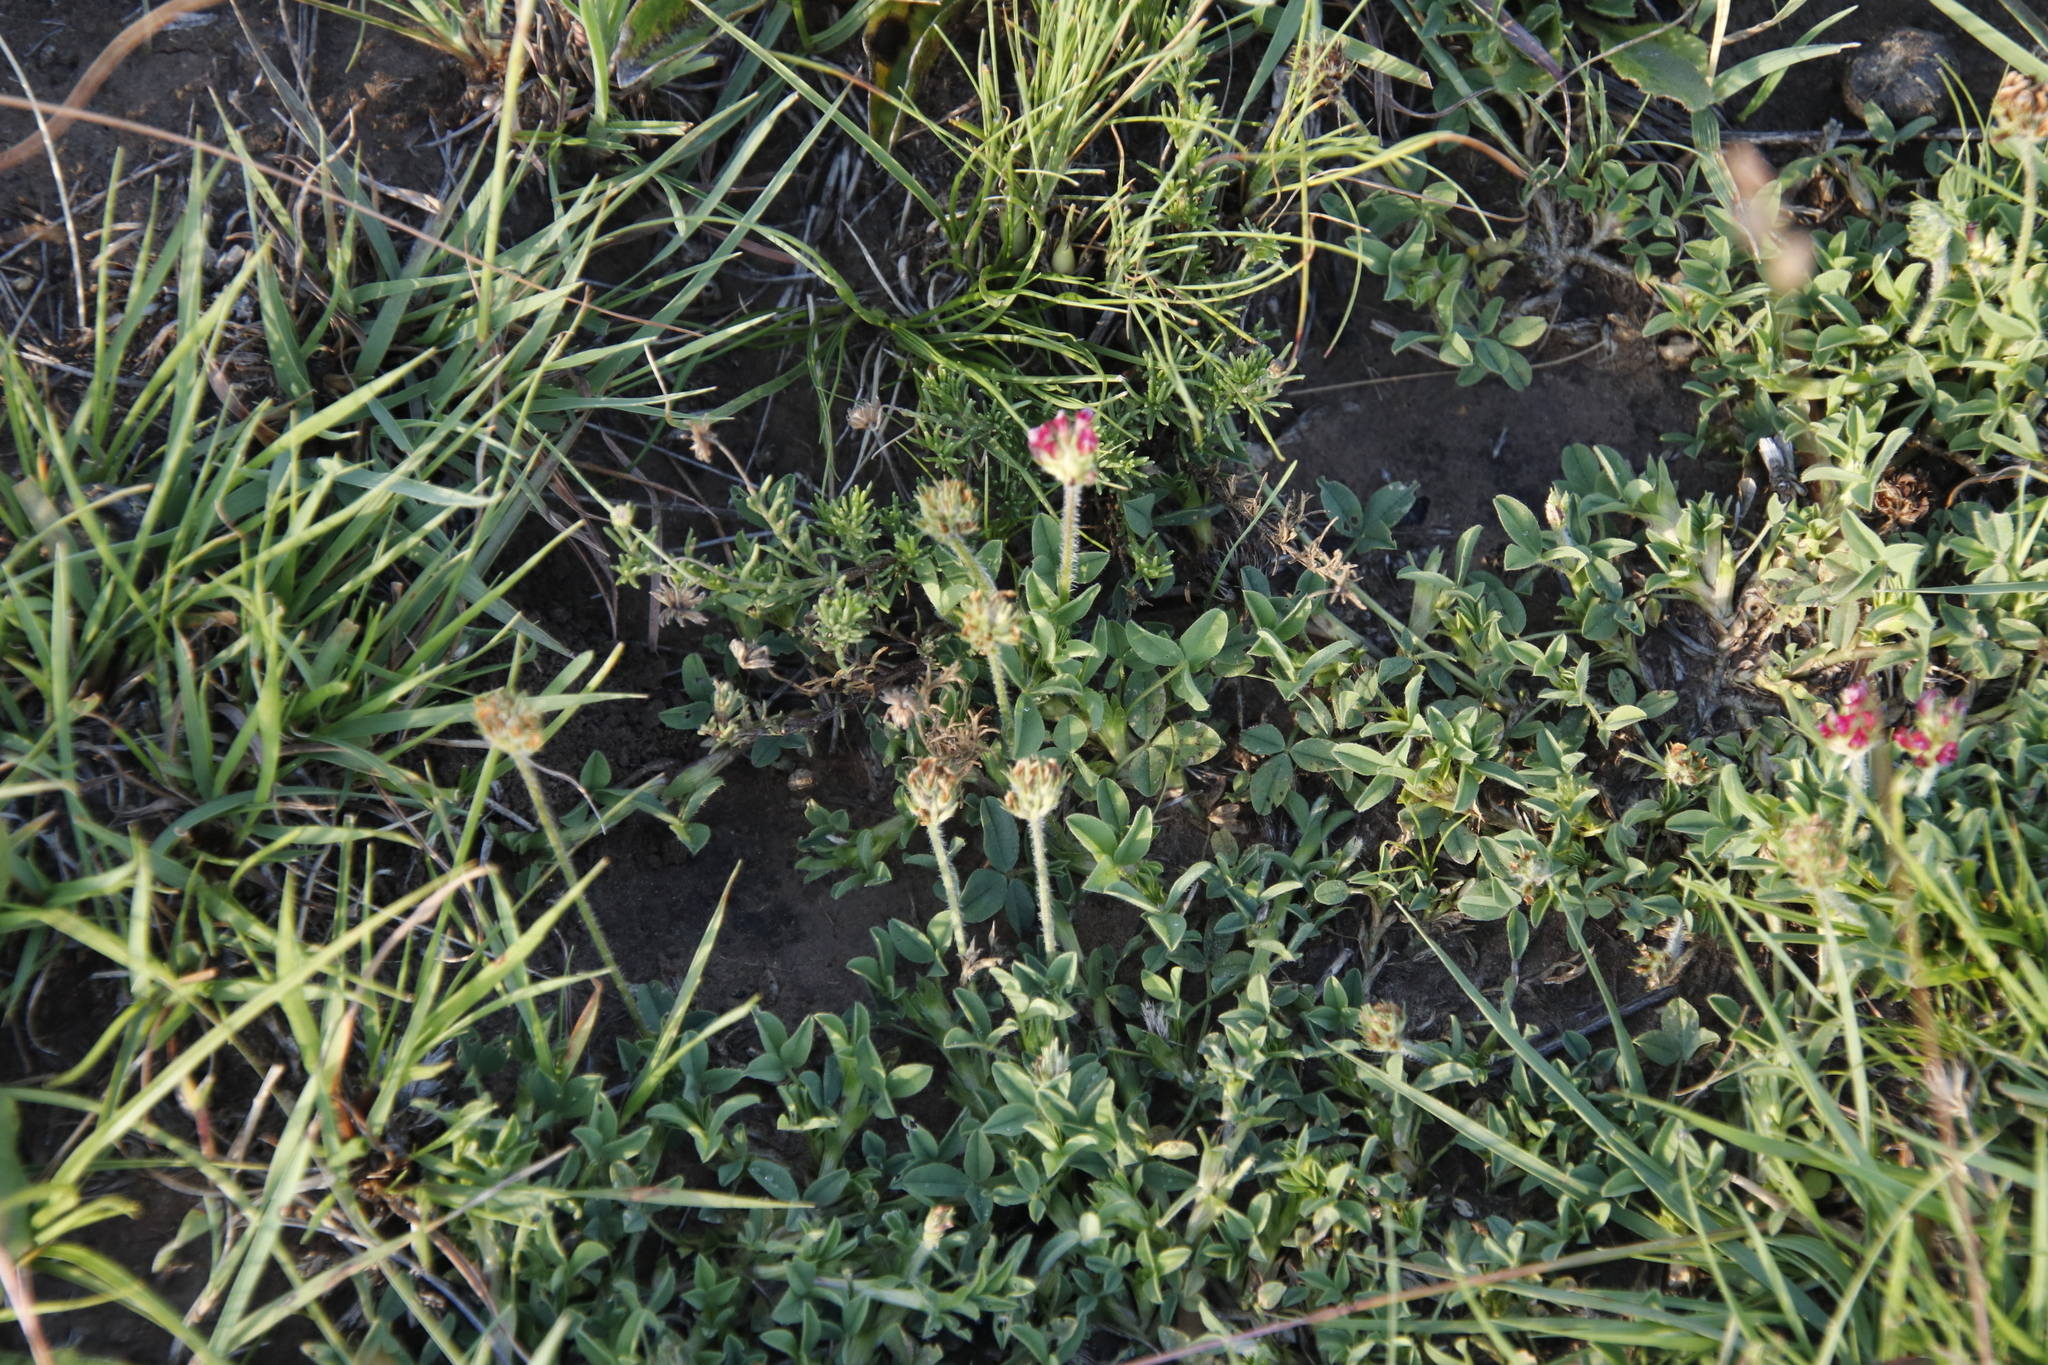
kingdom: Plantae
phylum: Tracheophyta
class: Magnoliopsida
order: Fabales
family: Fabaceae
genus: Trifolium
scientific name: Trifolium burchellianum
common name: Burchell's clover
